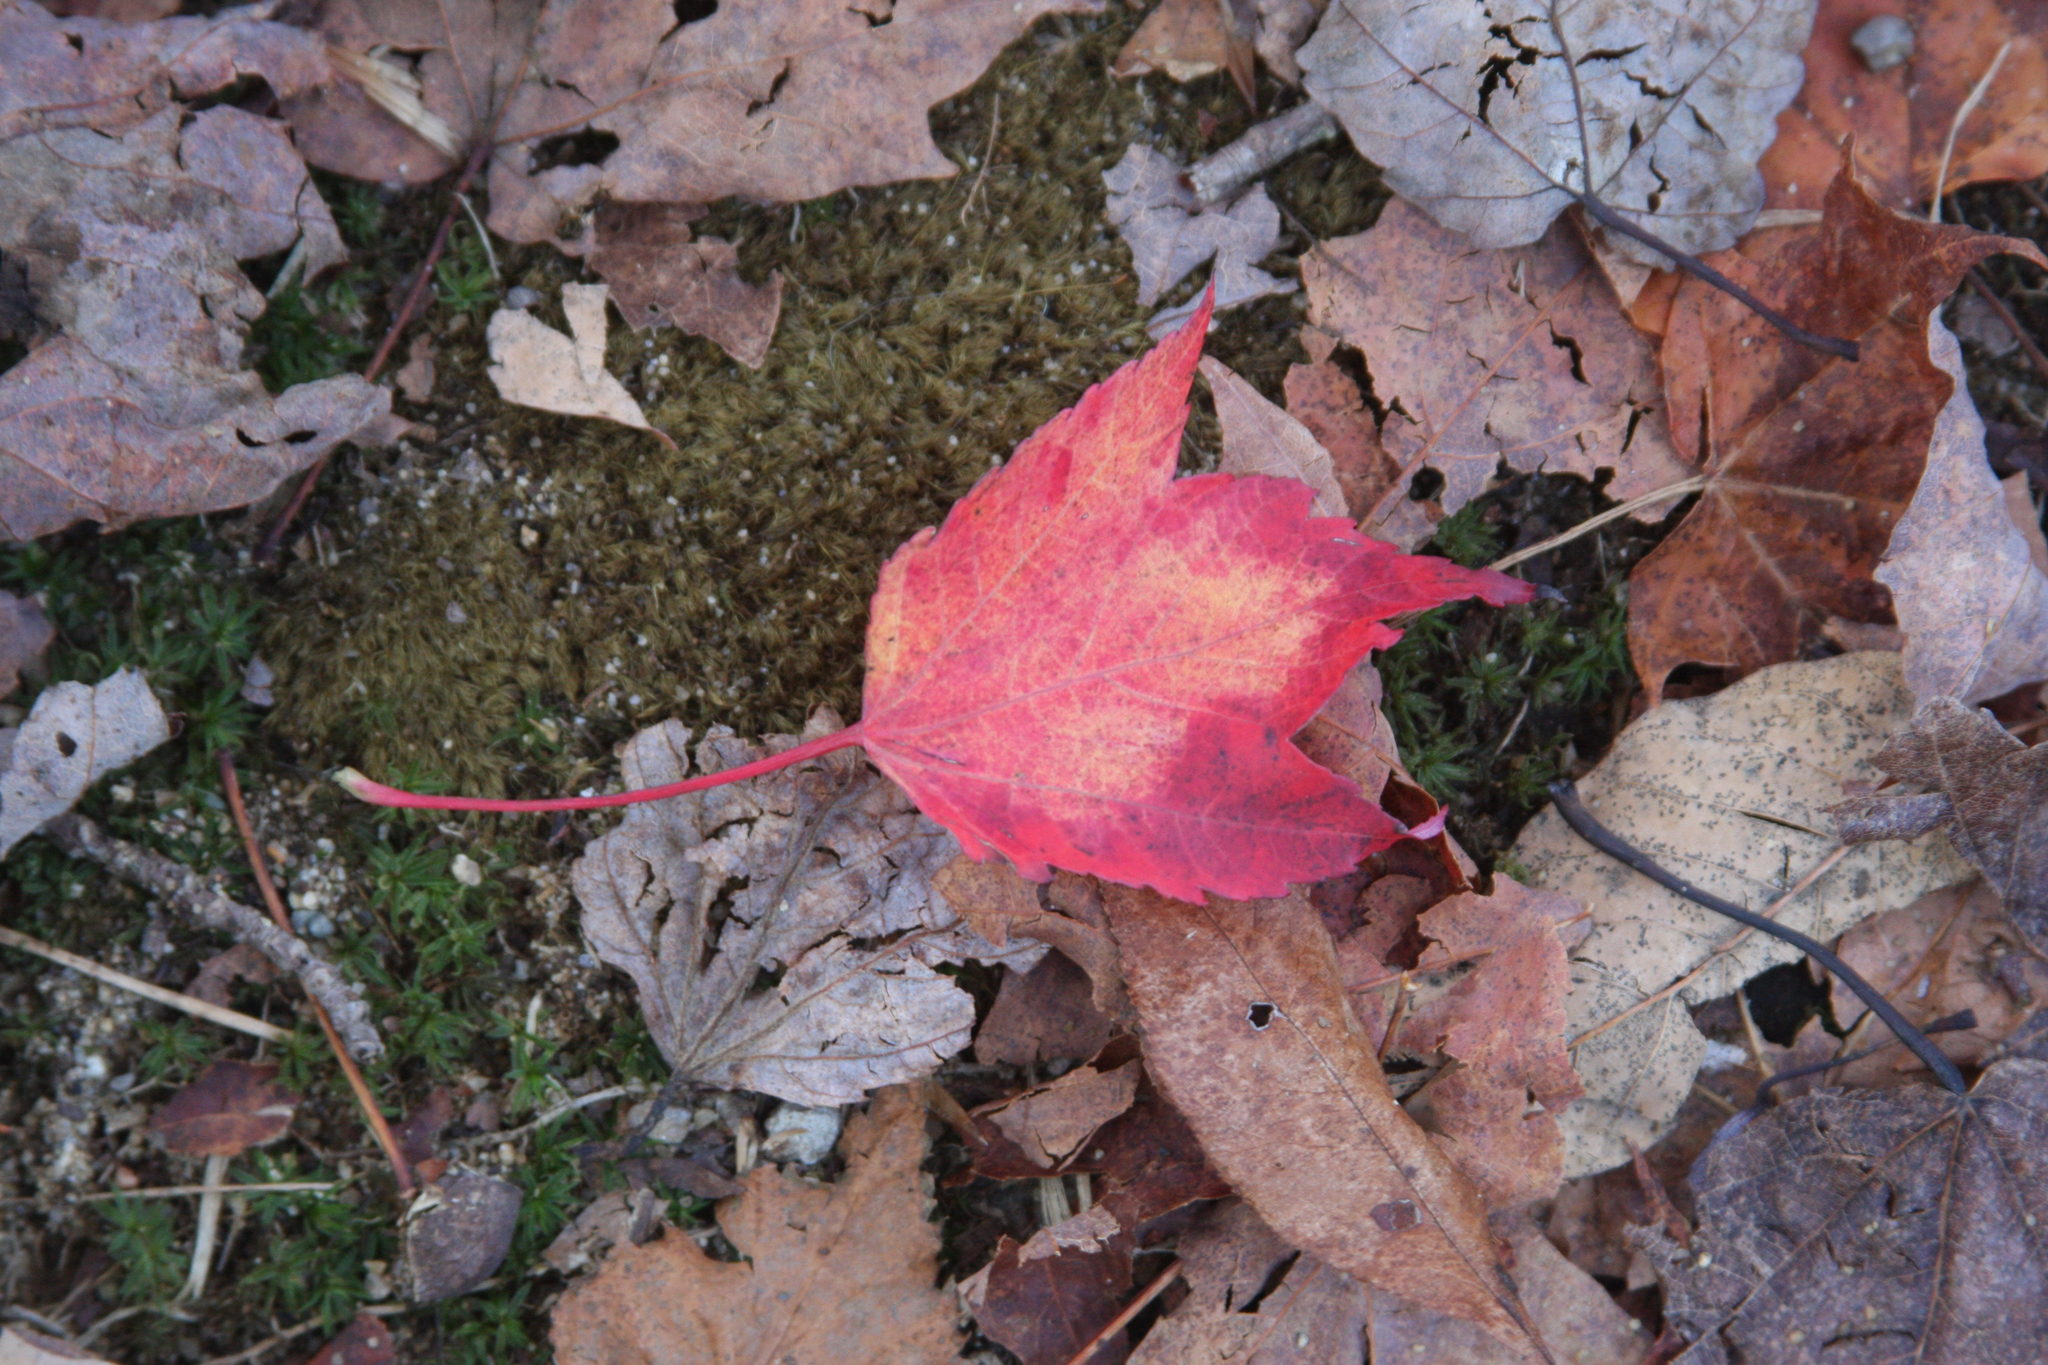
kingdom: Plantae
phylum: Tracheophyta
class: Magnoliopsida
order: Sapindales
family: Sapindaceae
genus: Acer
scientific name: Acer rubrum
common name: Red maple
